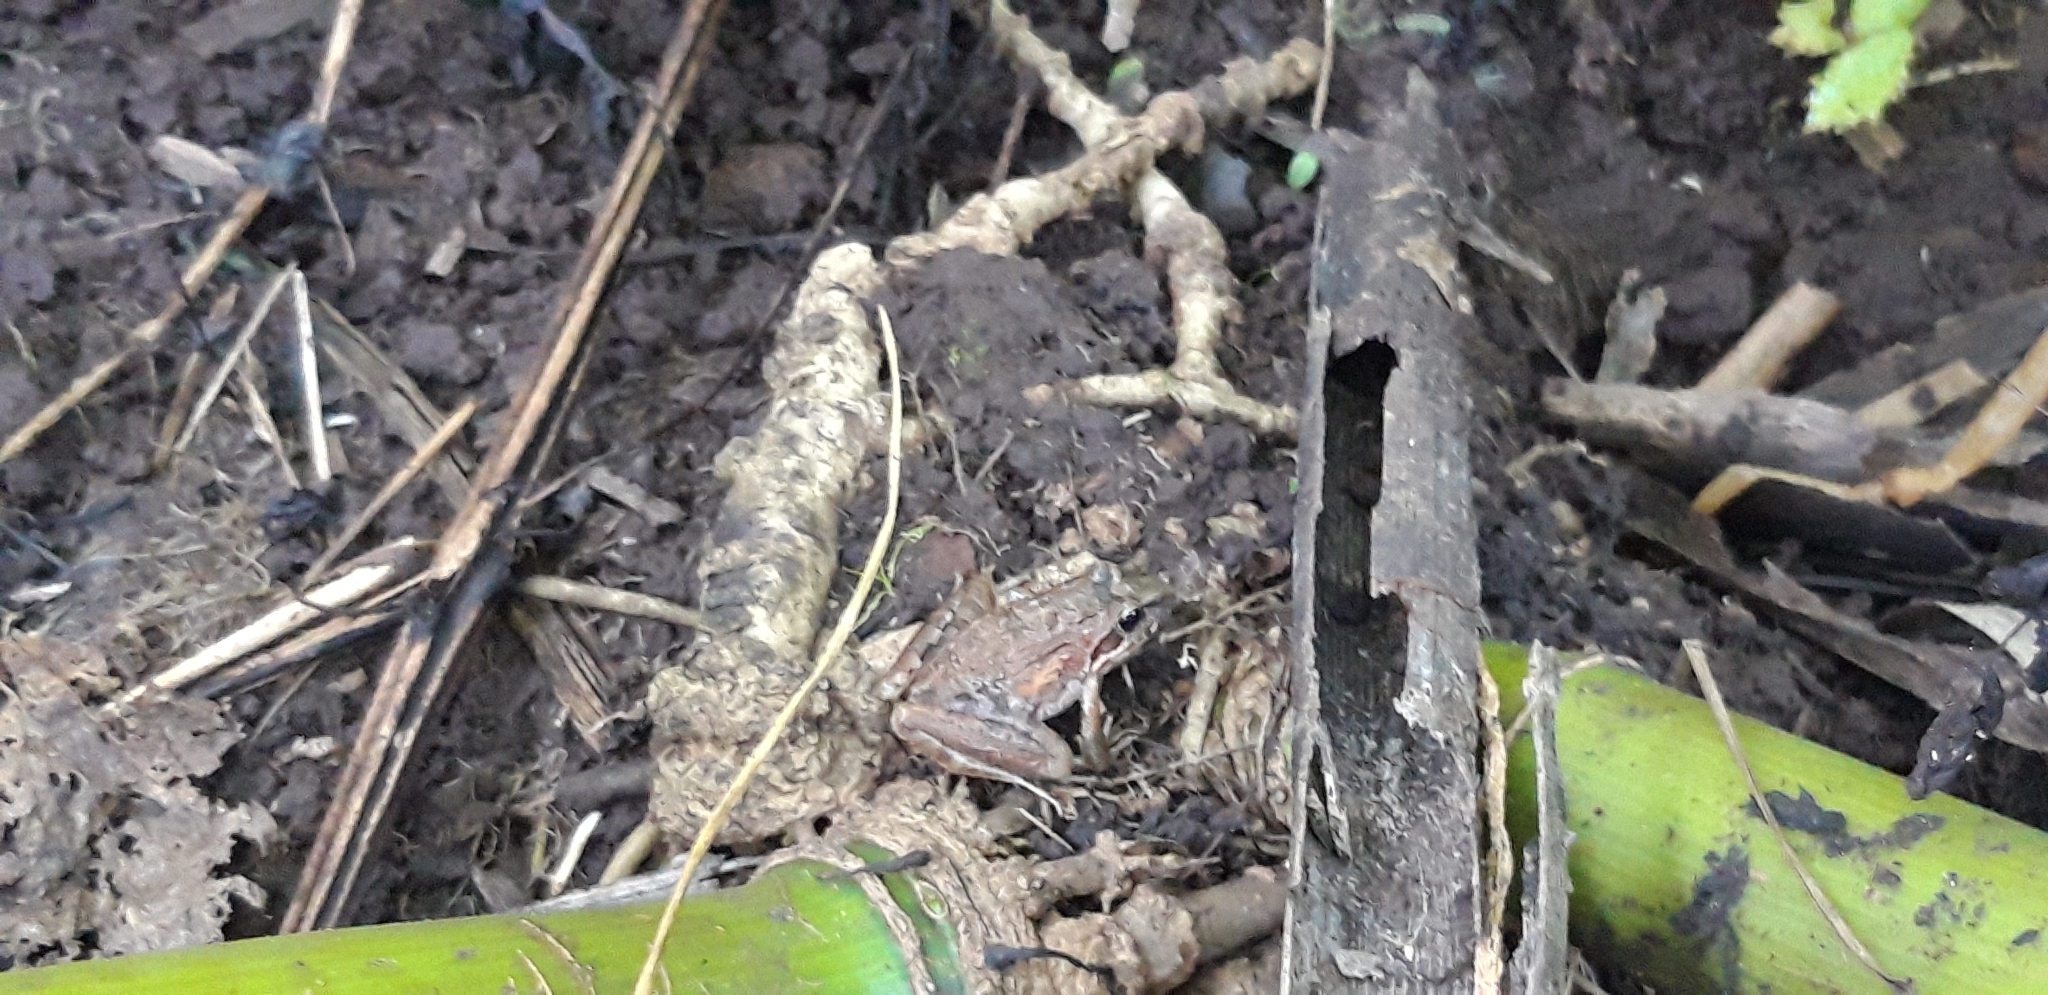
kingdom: Animalia
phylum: Chordata
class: Amphibia
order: Anura
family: Pyxicephalidae
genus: Strongylopus
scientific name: Strongylopus grayii
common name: Gray's stream frog
